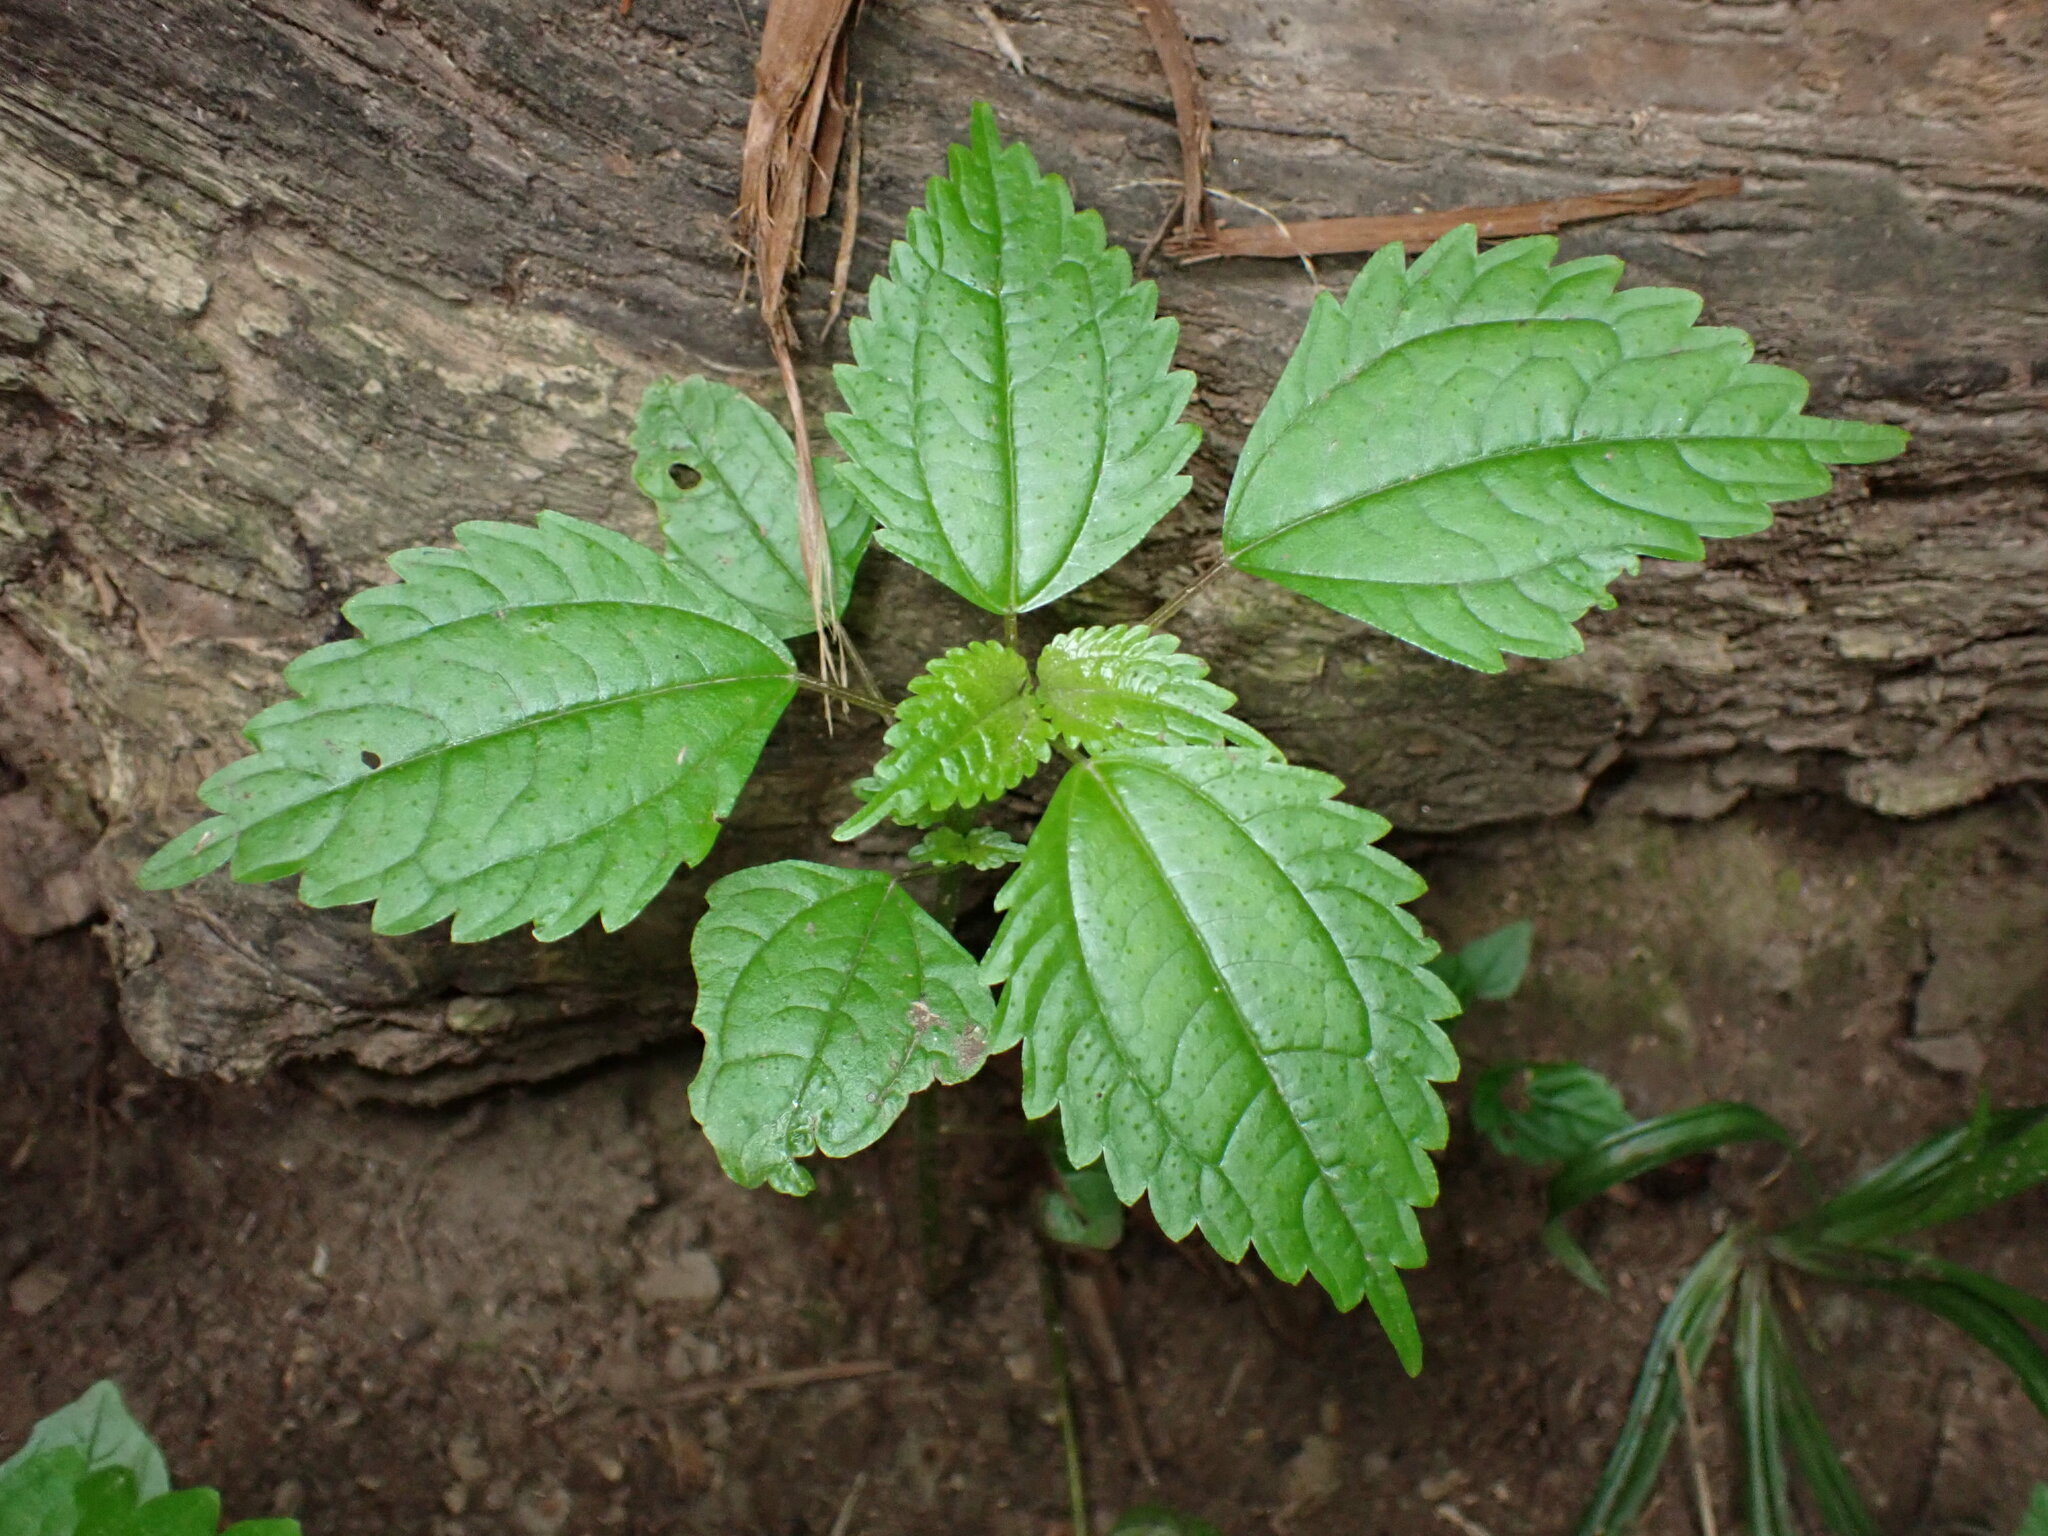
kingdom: Plantae
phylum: Tracheophyta
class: Magnoliopsida
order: Rosales
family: Urticaceae
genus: Pilea
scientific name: Pilea pumila
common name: Clearweed
